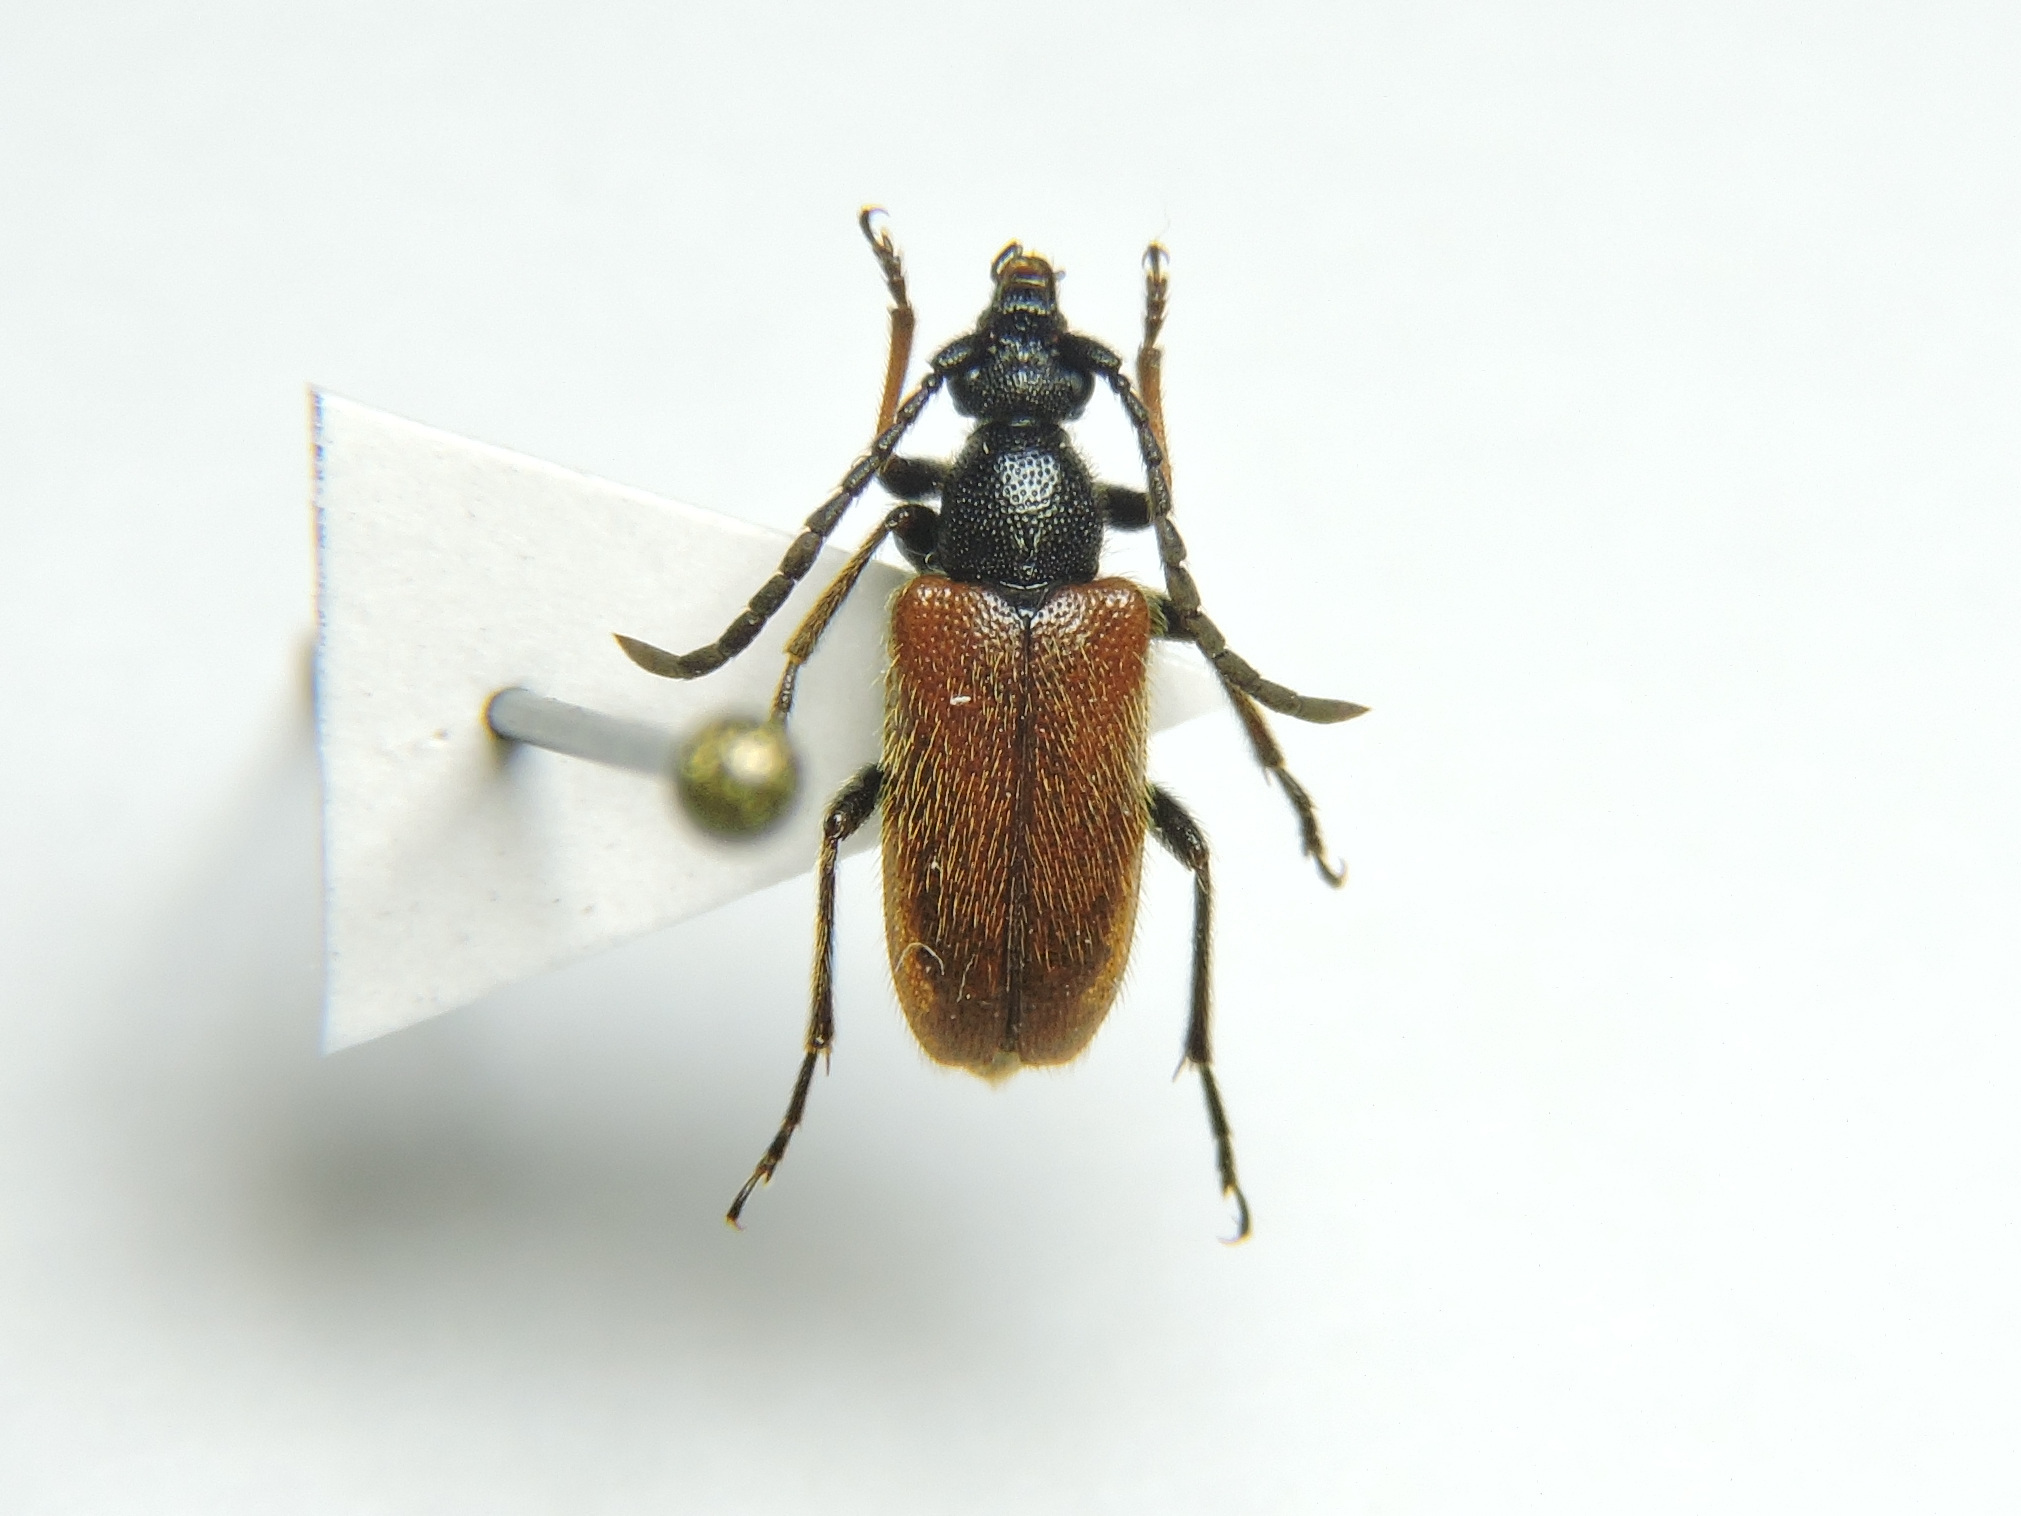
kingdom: Animalia
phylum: Arthropoda
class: Insecta
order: Coleoptera
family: Cerambycidae
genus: Pseudovadonia
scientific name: Pseudovadonia livida
